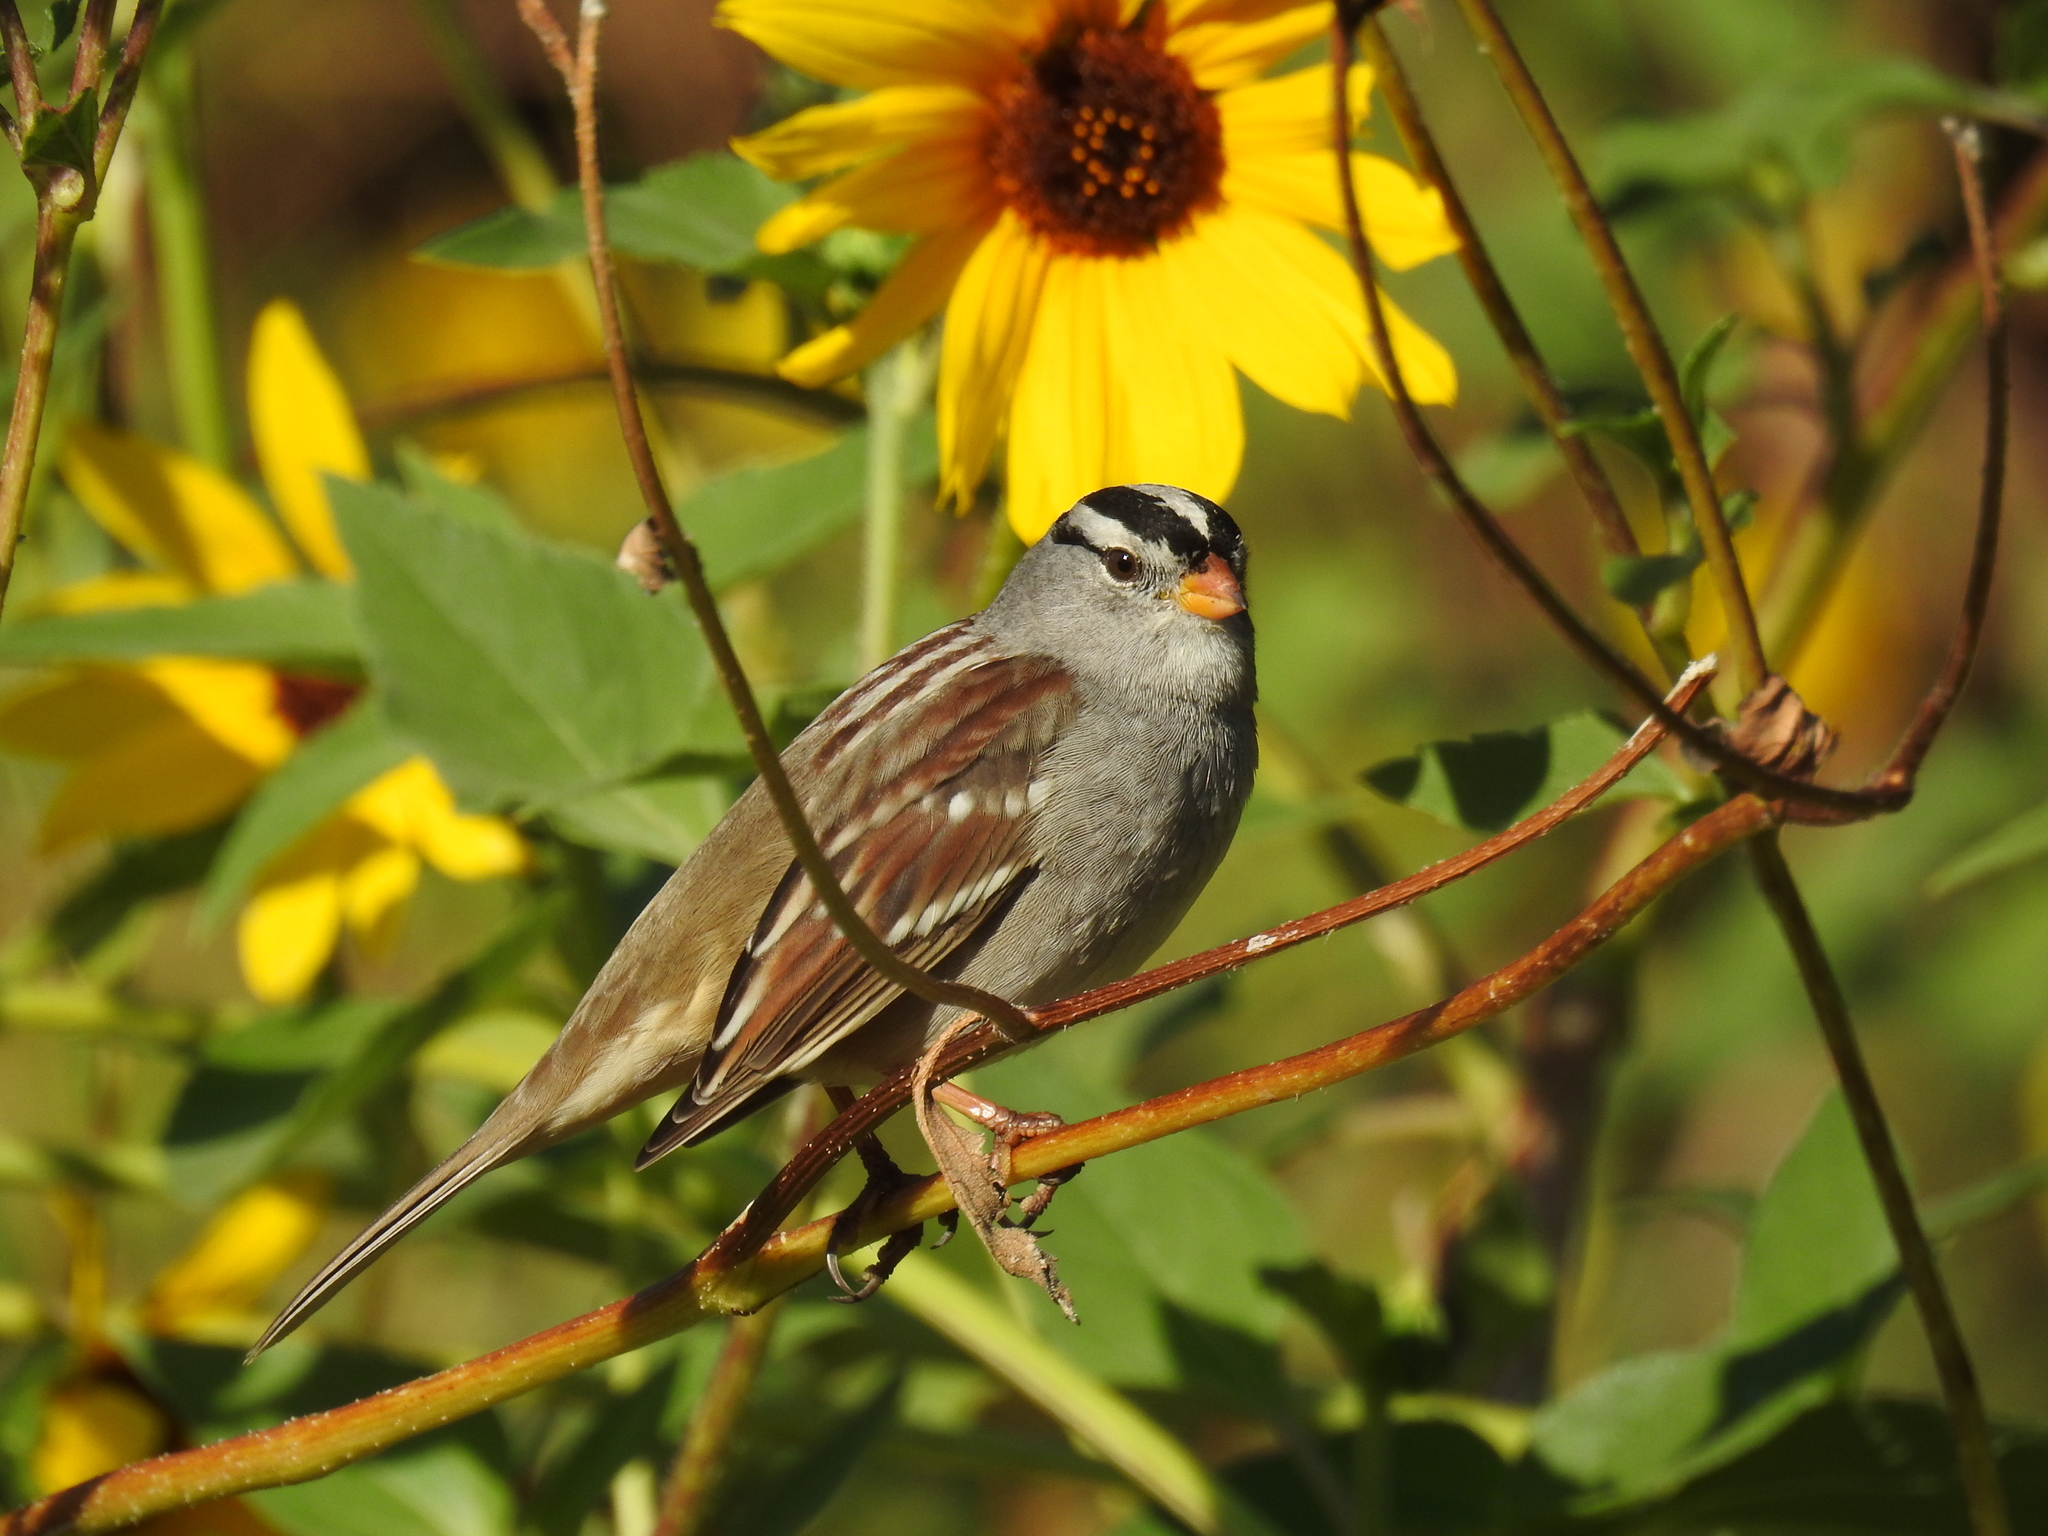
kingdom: Animalia
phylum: Chordata
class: Aves
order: Passeriformes
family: Passerellidae
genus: Zonotrichia
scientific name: Zonotrichia leucophrys
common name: White-crowned sparrow
